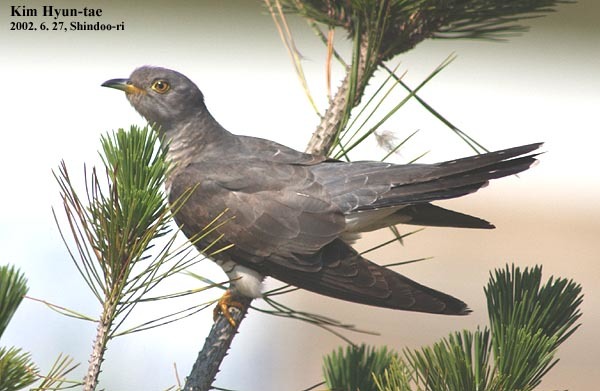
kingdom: Animalia
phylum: Chordata
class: Aves
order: Cuculiformes
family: Cuculidae
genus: Cuculus
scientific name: Cuculus canorus
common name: Common cuckoo
